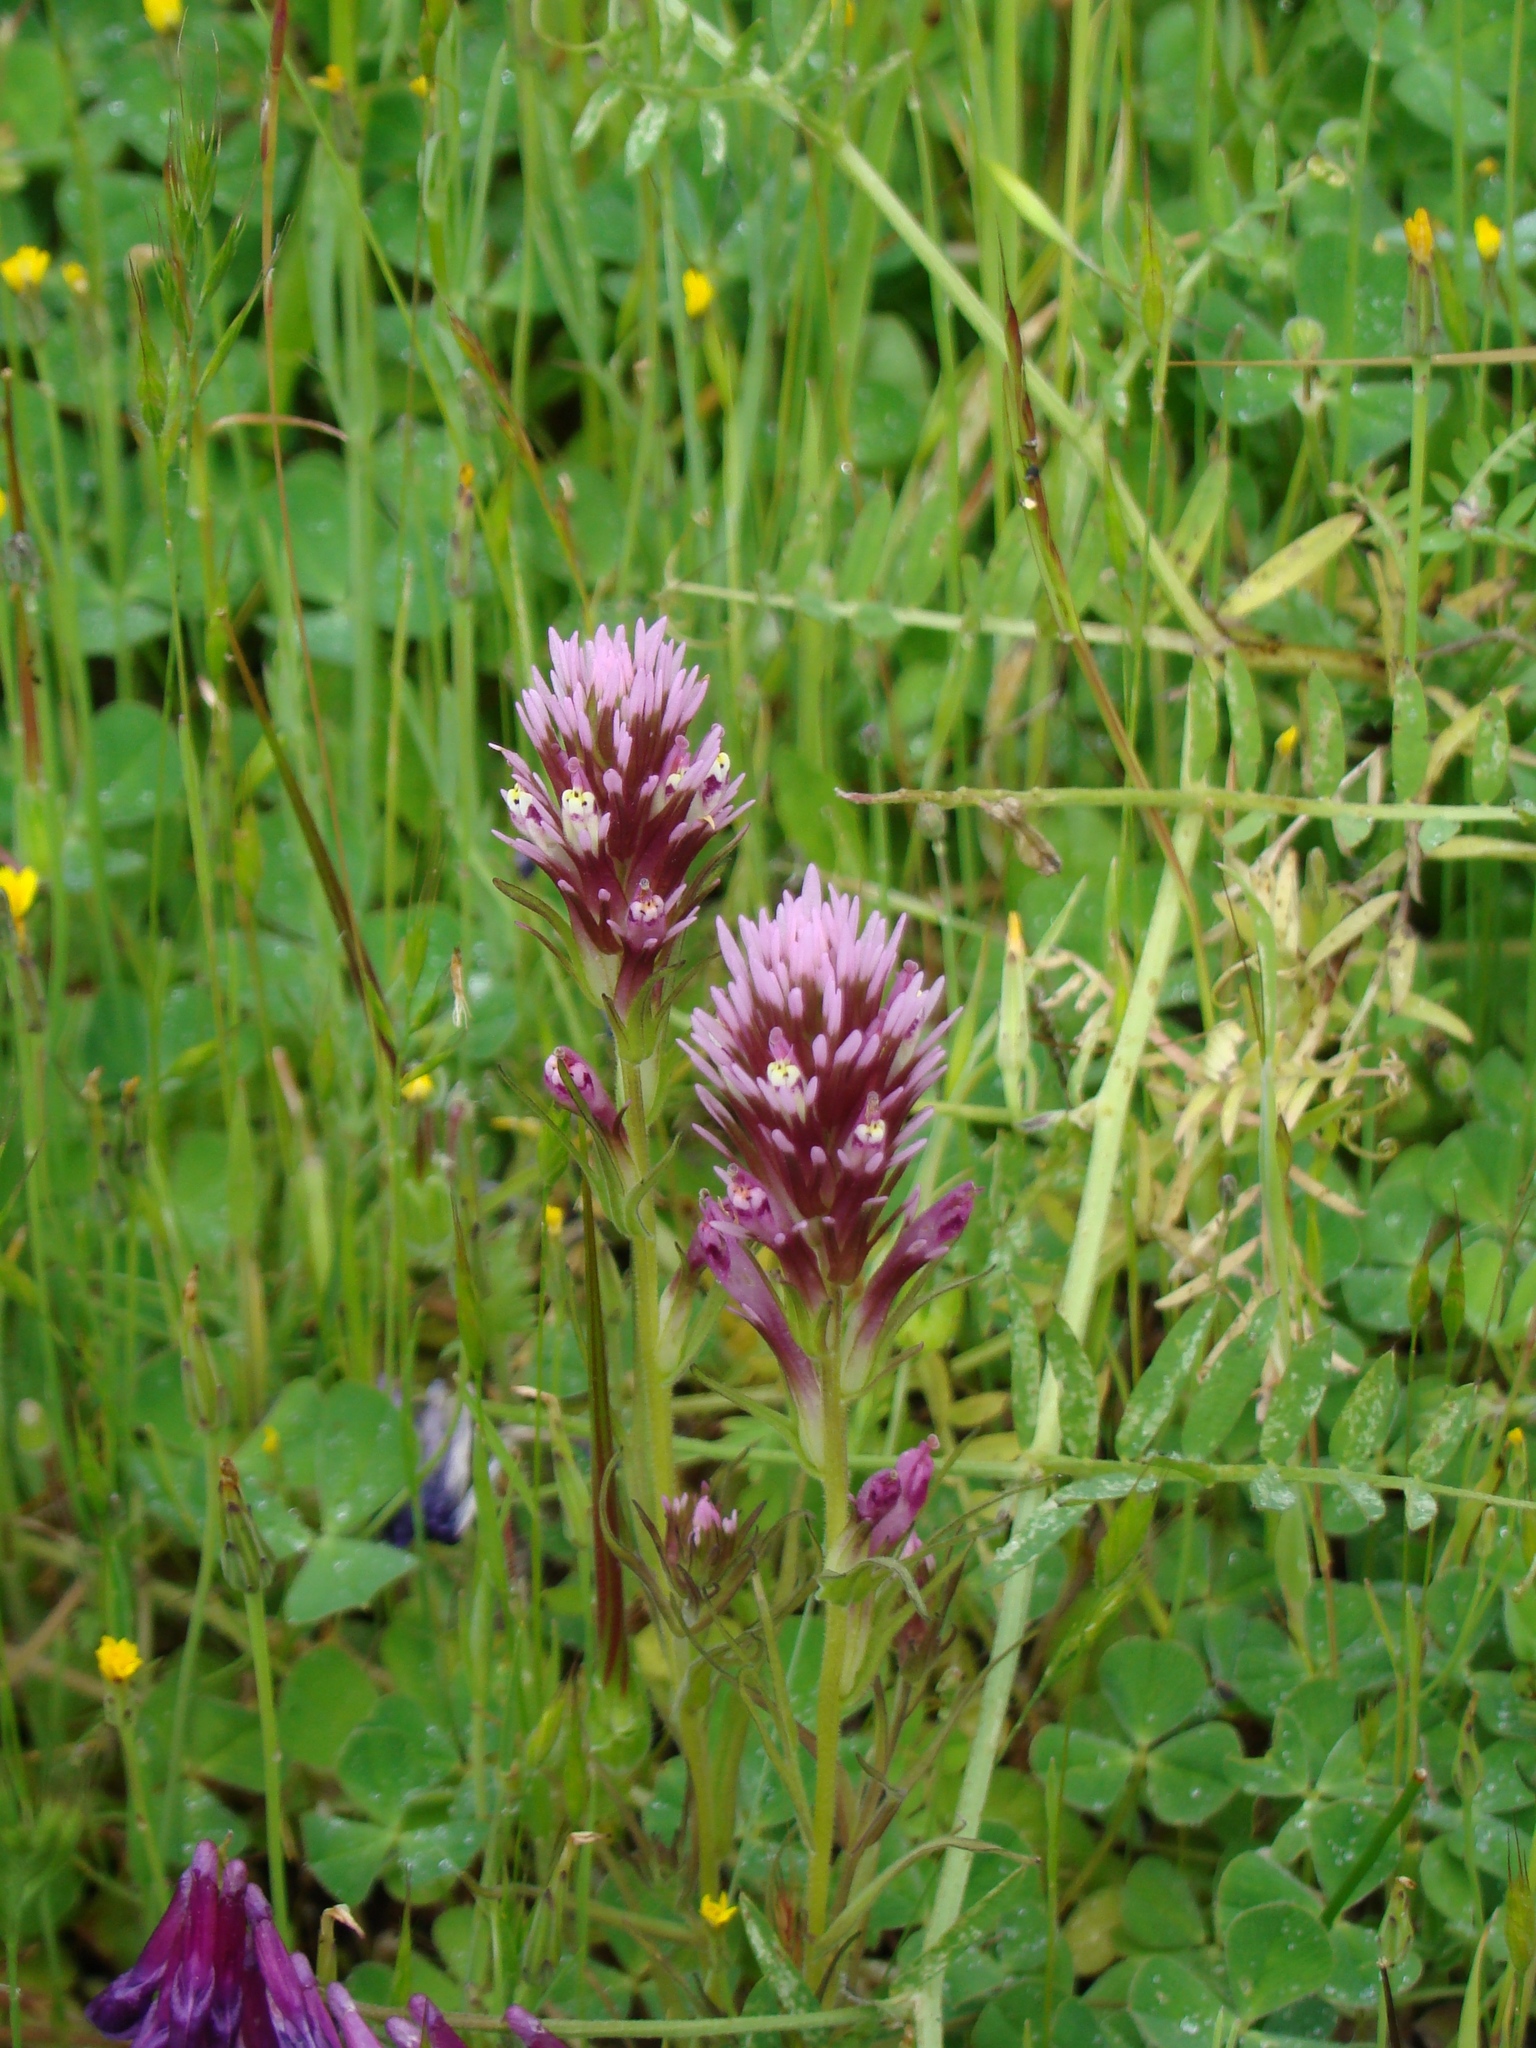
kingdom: Plantae
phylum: Tracheophyta
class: Magnoliopsida
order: Lamiales
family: Orobanchaceae
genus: Castilleja
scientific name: Castilleja densiflora
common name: Dense-flower indian paintbrush
